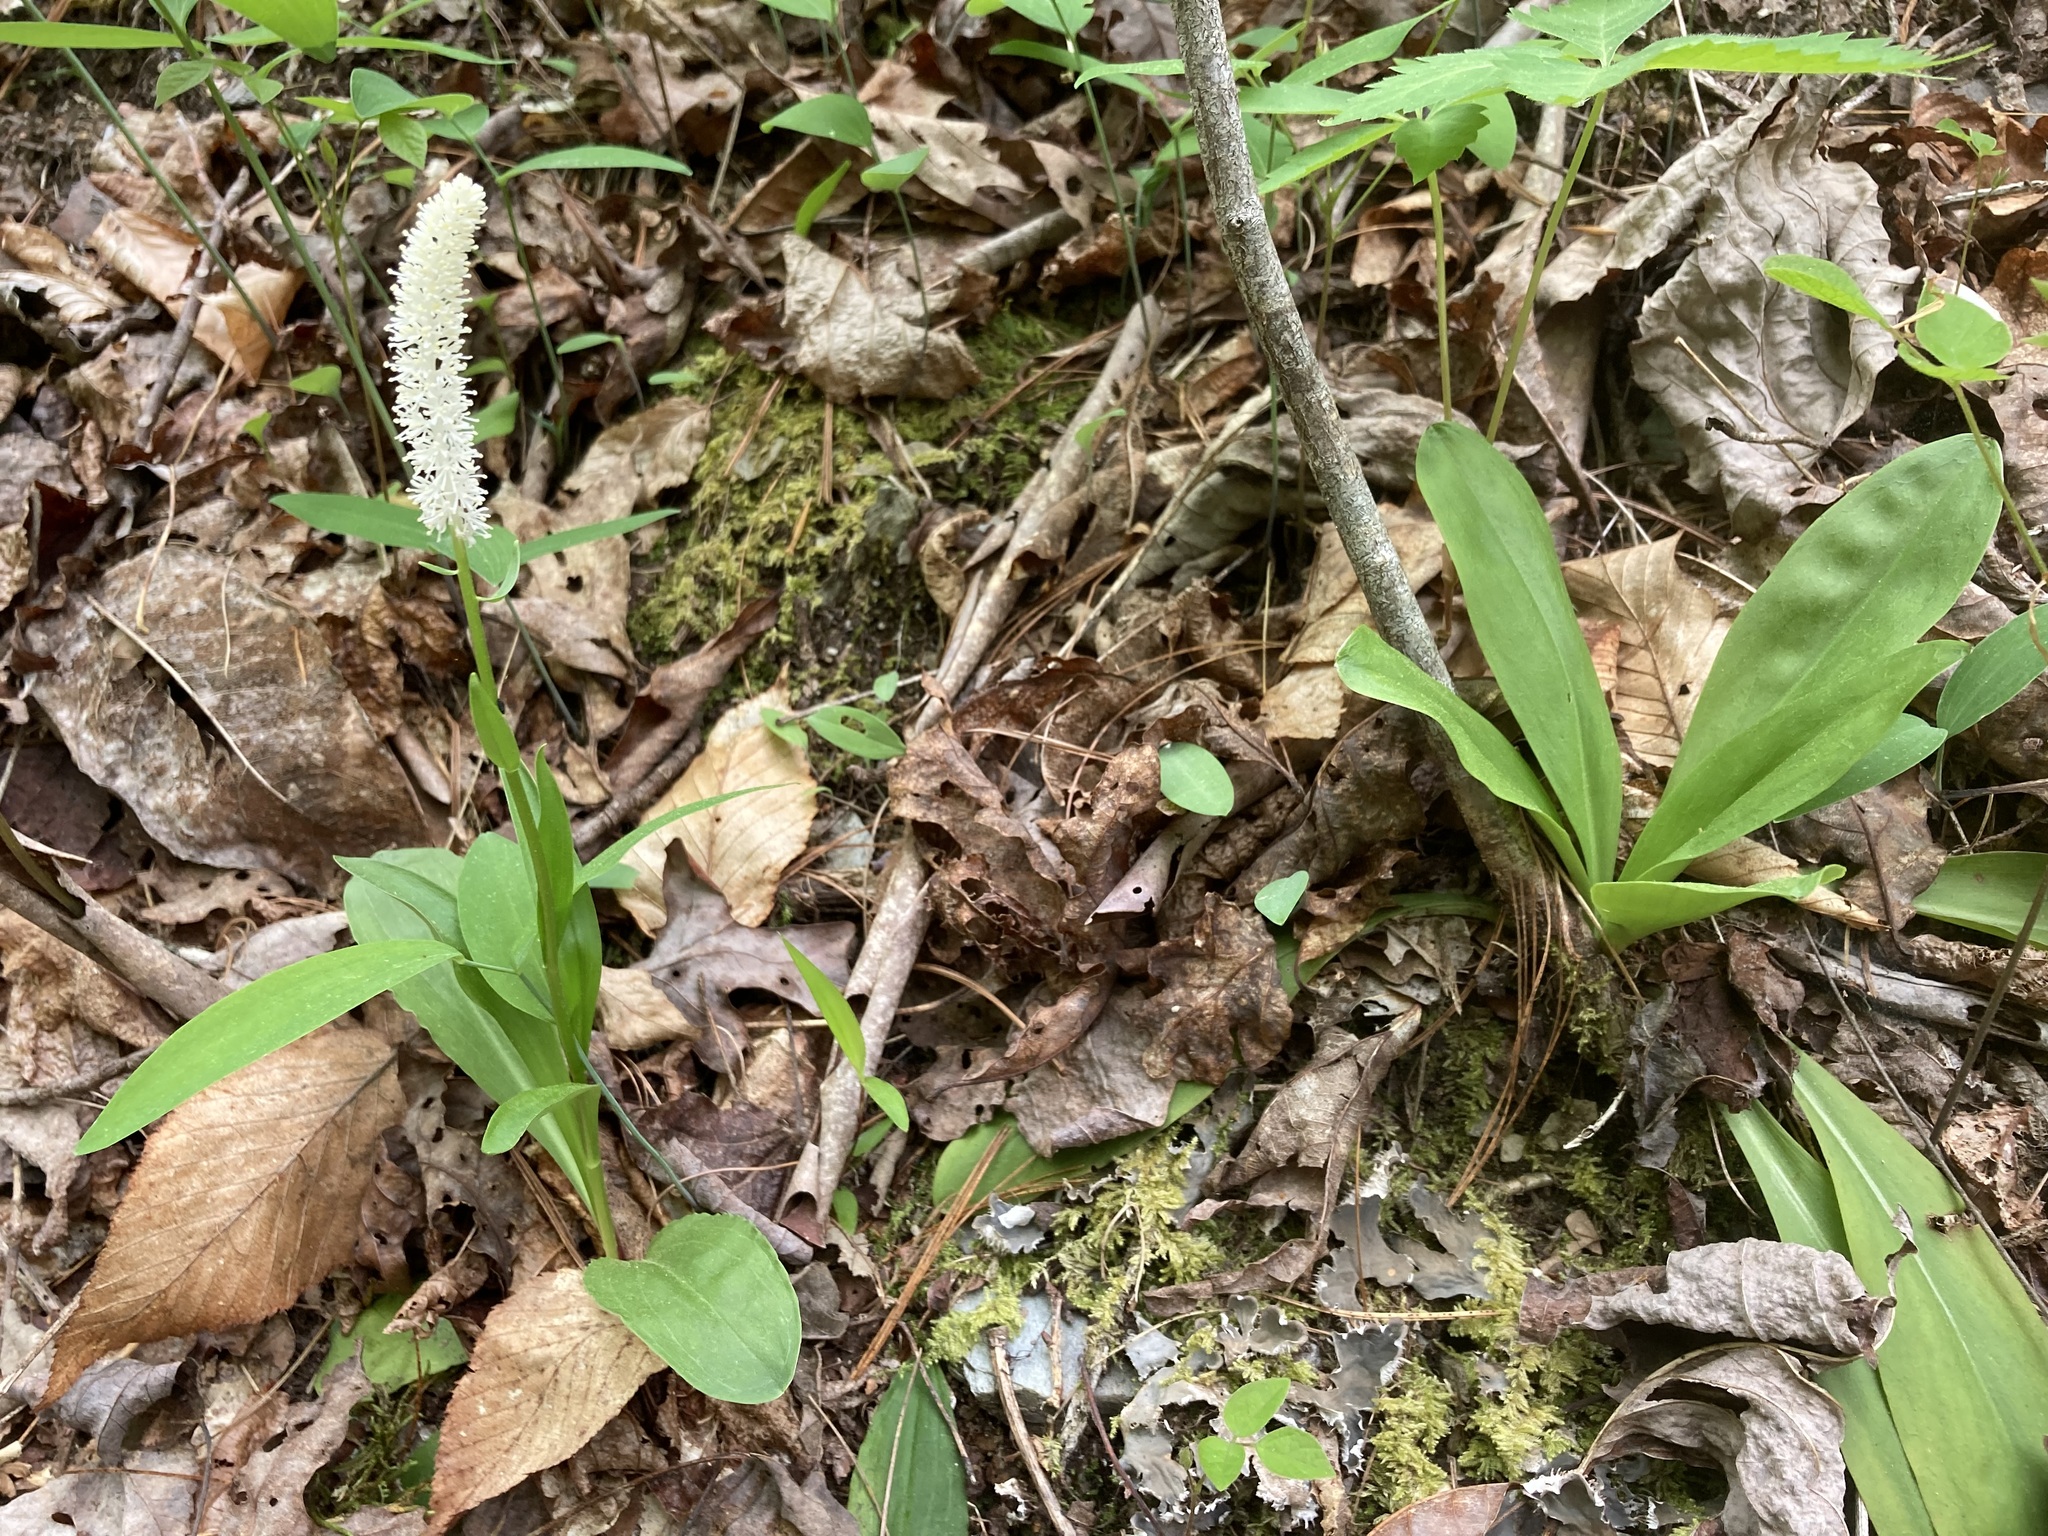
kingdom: Plantae
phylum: Tracheophyta
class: Liliopsida
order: Liliales
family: Melanthiaceae
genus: Chamaelirium
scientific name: Chamaelirium luteum
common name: Fairy-wand
